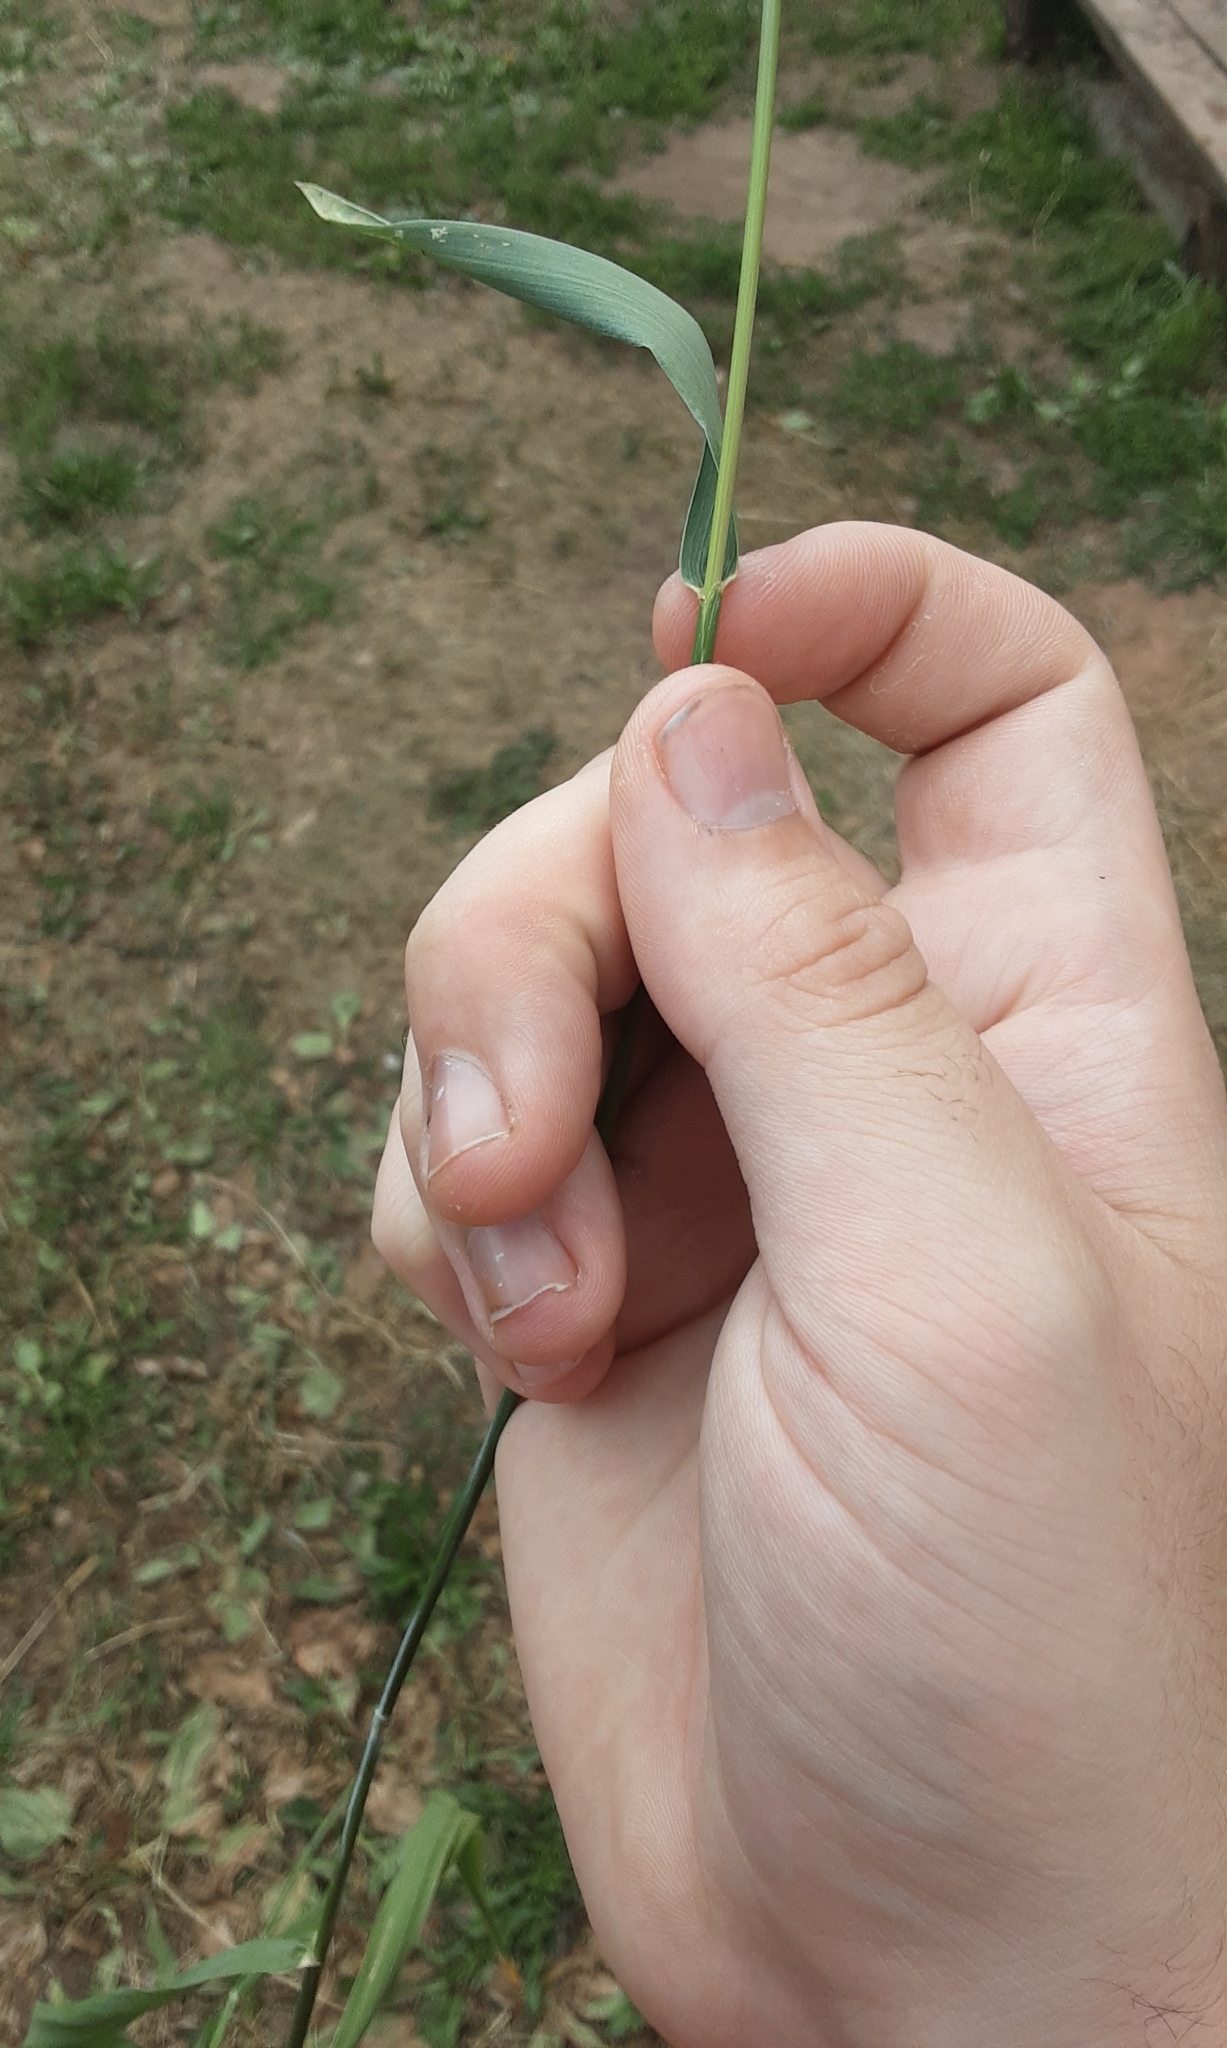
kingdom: Plantae
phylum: Tracheophyta
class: Liliopsida
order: Poales
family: Poaceae
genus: Elymus
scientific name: Elymus repens
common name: Quackgrass
